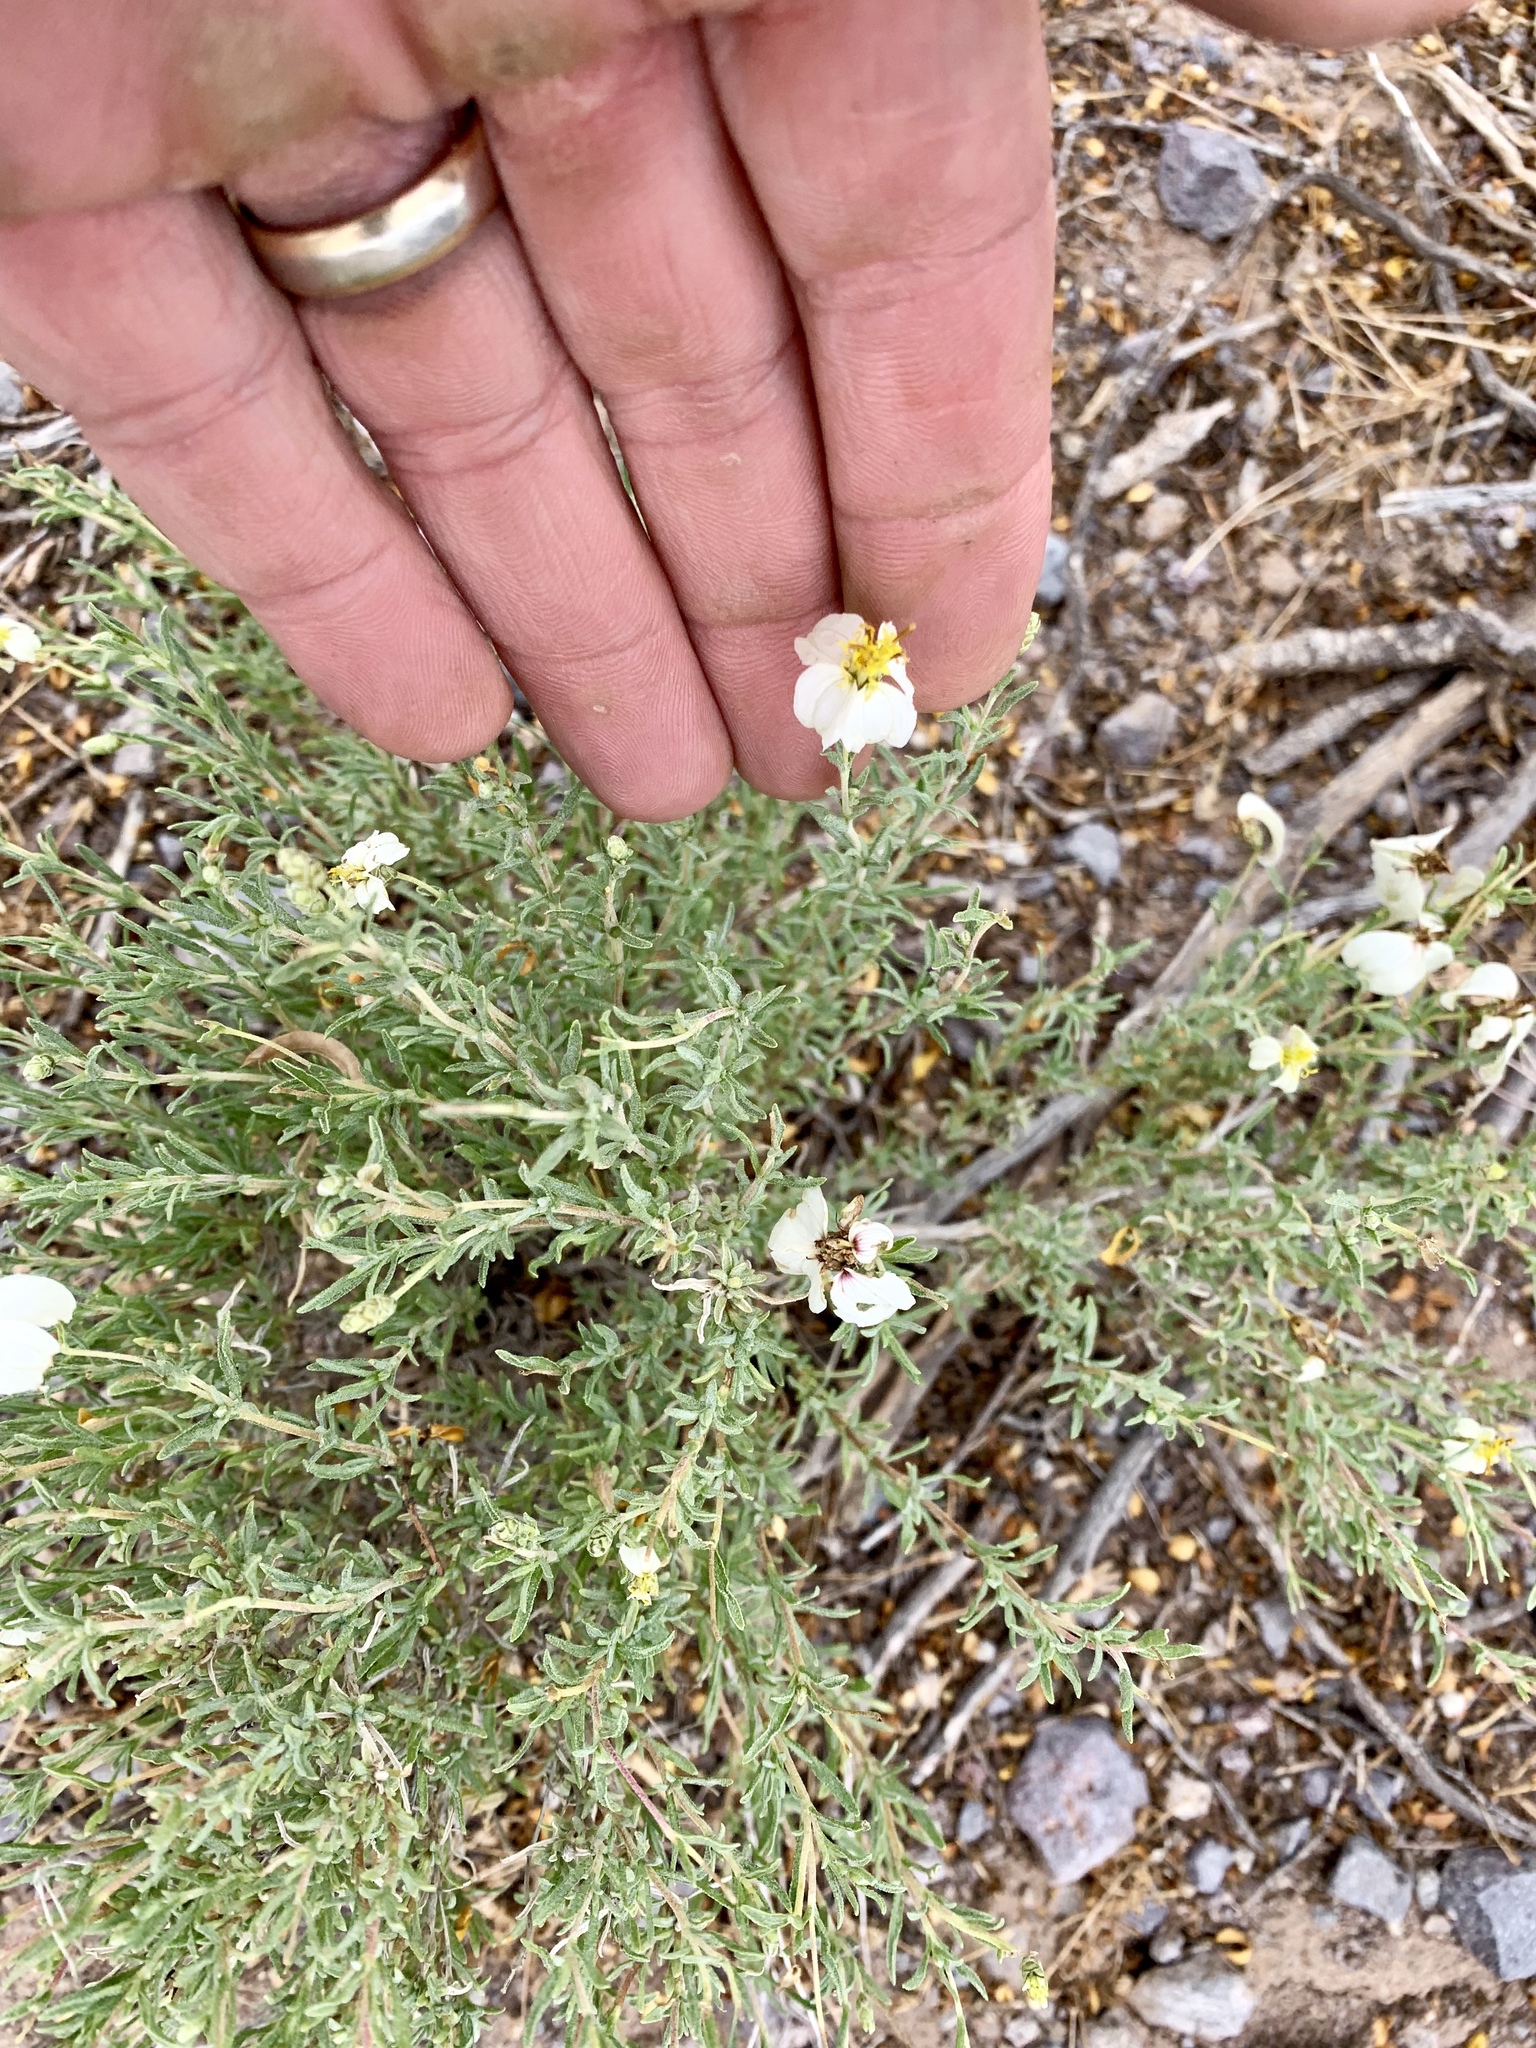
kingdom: Plantae
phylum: Tracheophyta
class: Magnoliopsida
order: Asterales
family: Asteraceae
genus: Zinnia
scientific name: Zinnia acerosa
